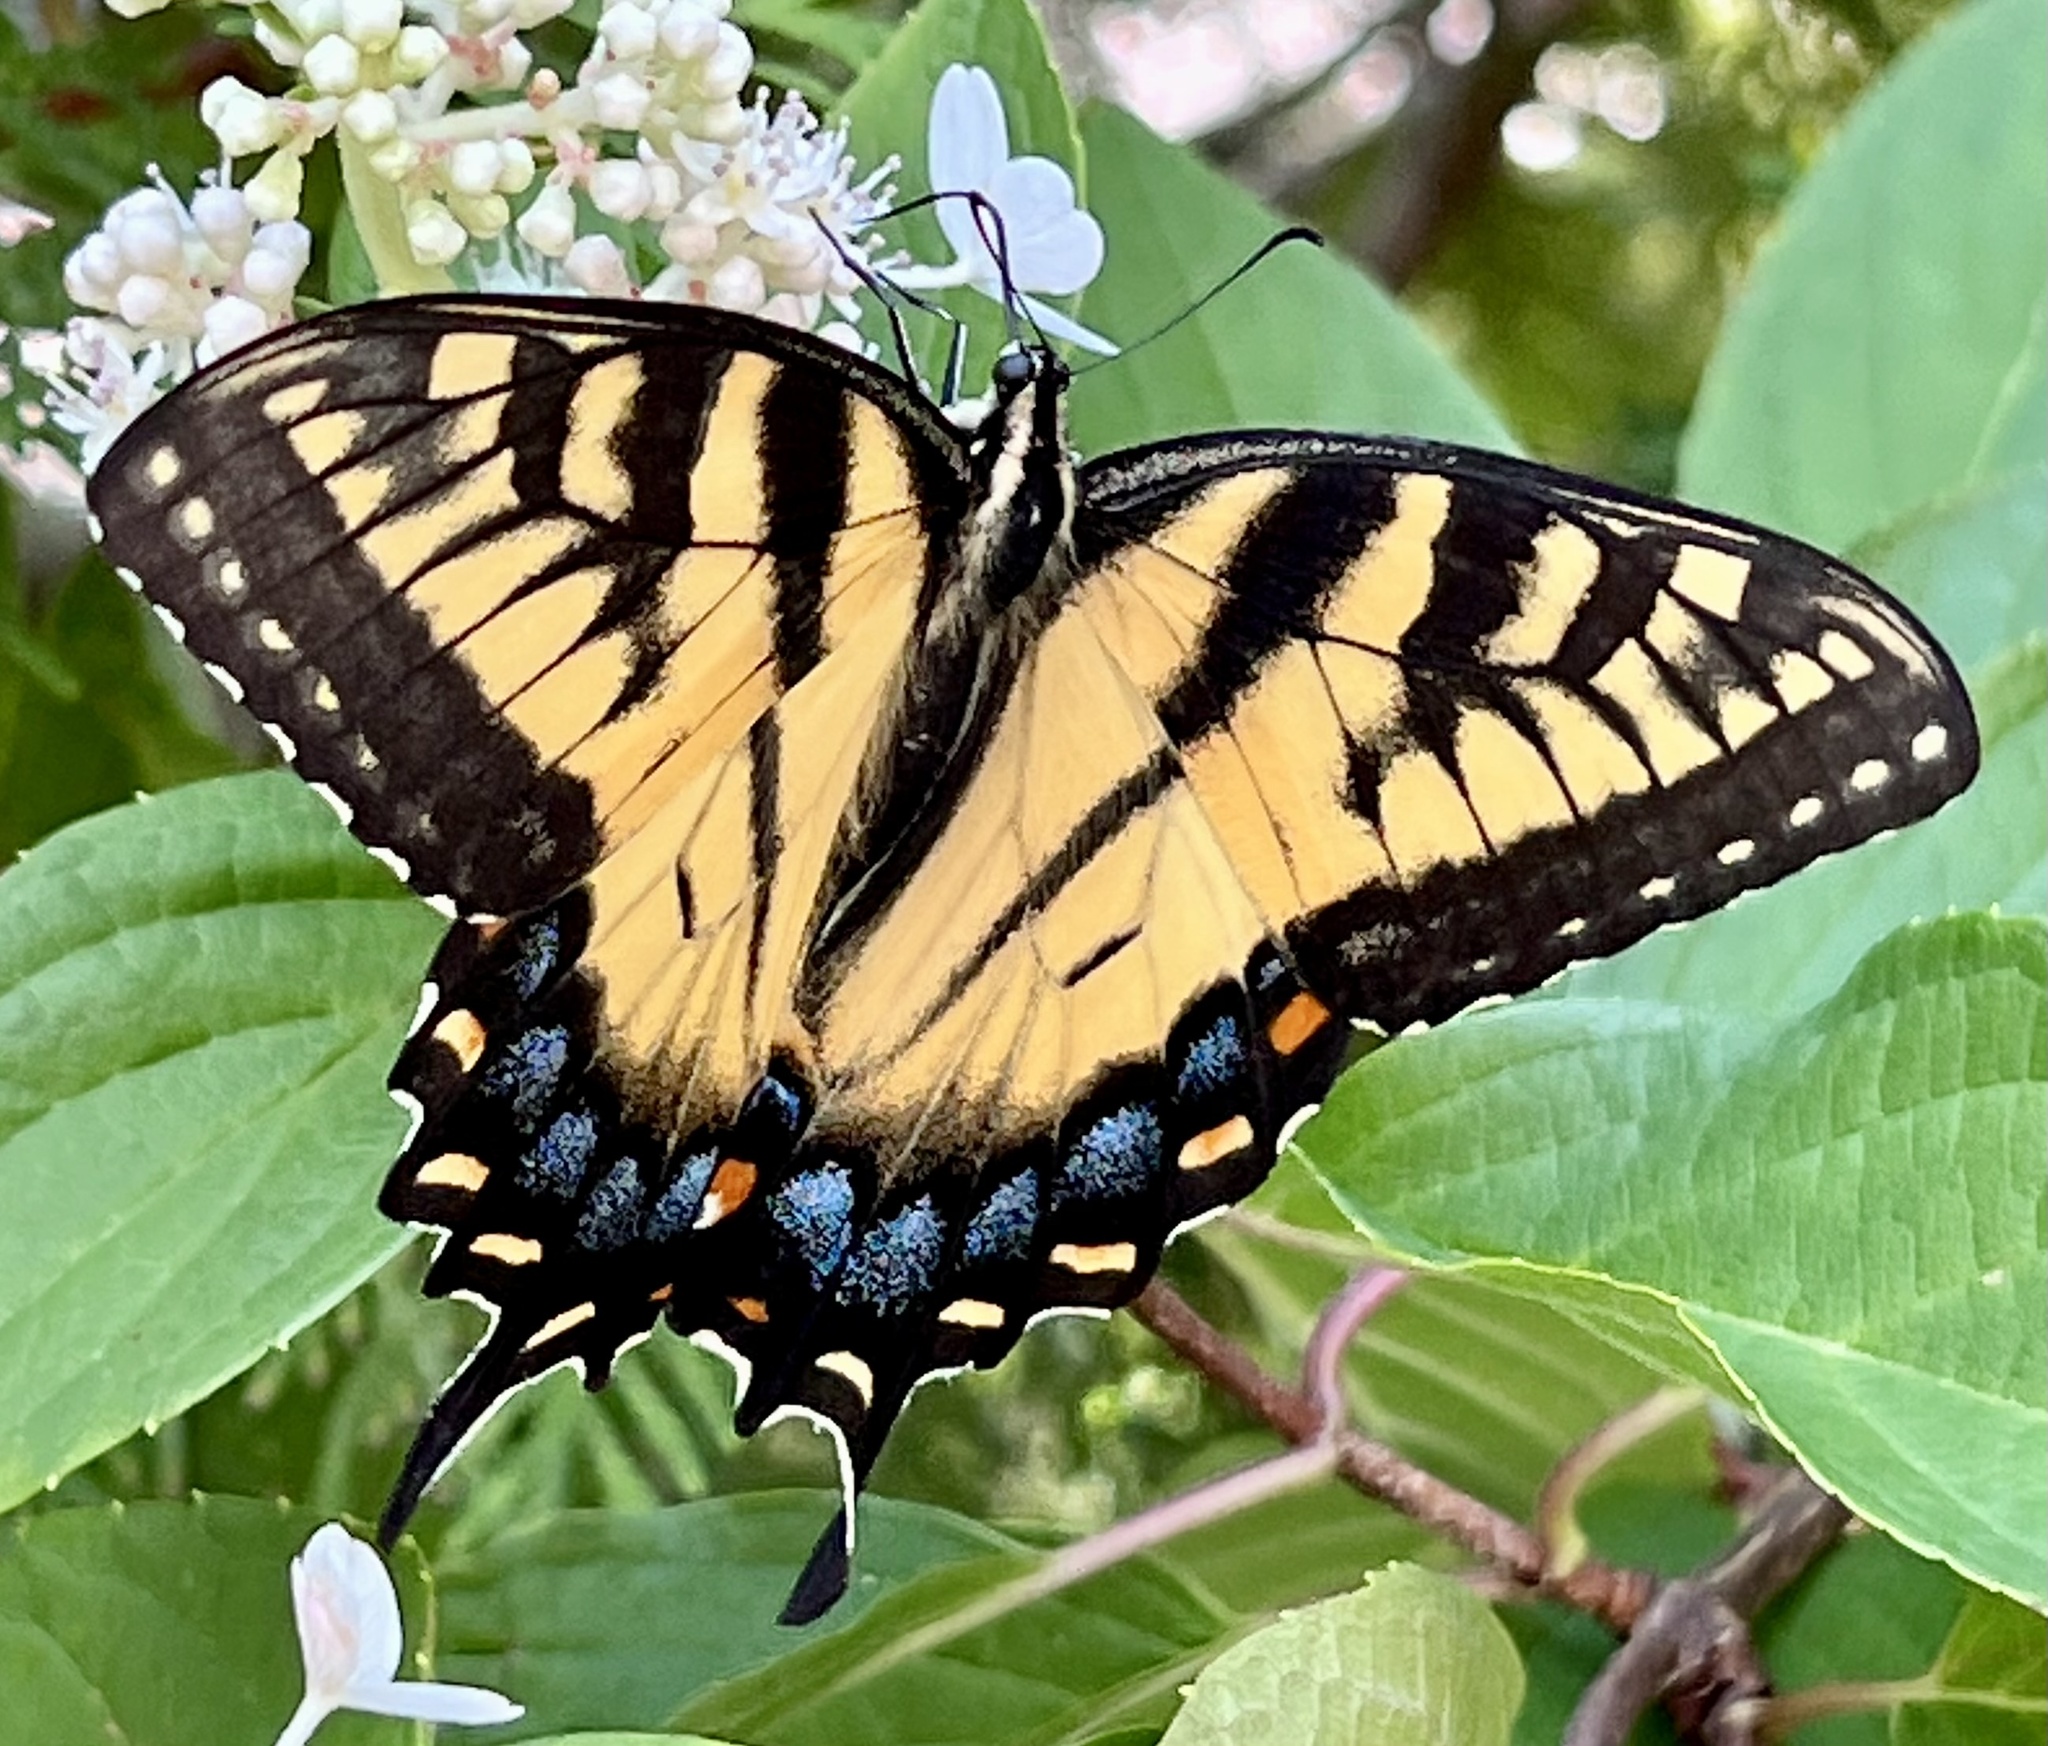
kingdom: Animalia
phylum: Arthropoda
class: Insecta
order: Lepidoptera
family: Papilionidae
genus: Papilio
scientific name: Papilio glaucus
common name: Tiger swallowtail
